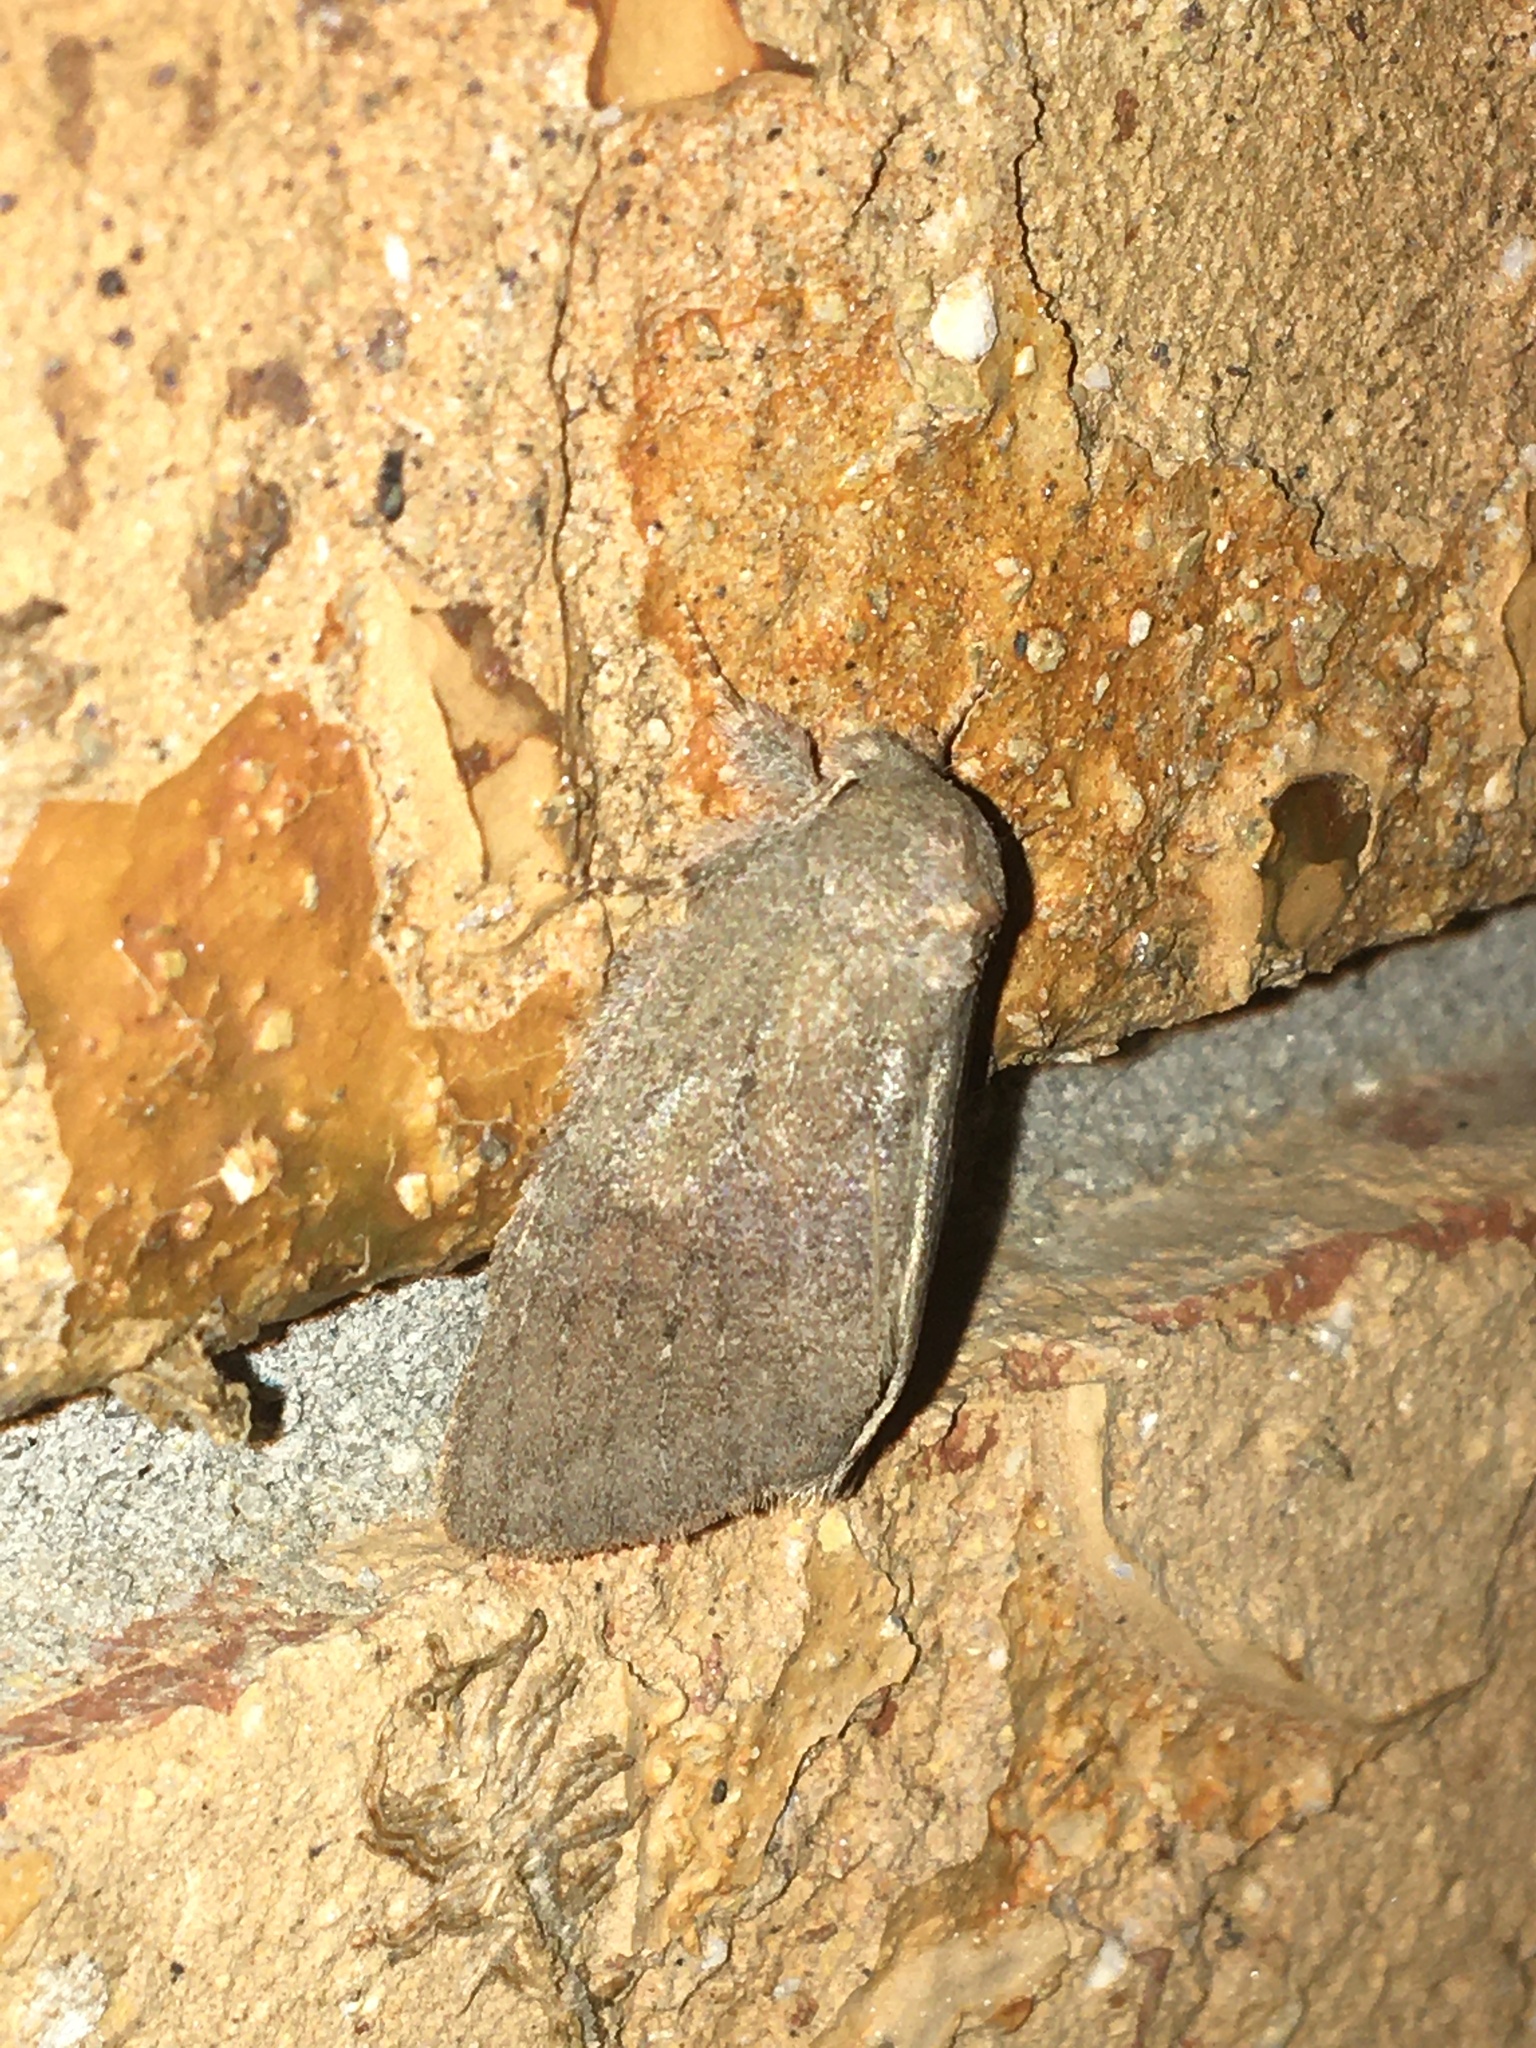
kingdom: Animalia
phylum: Arthropoda
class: Insecta
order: Lepidoptera
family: Notodontidae
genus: Misogada
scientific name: Misogada unicolor
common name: Drab prominent
